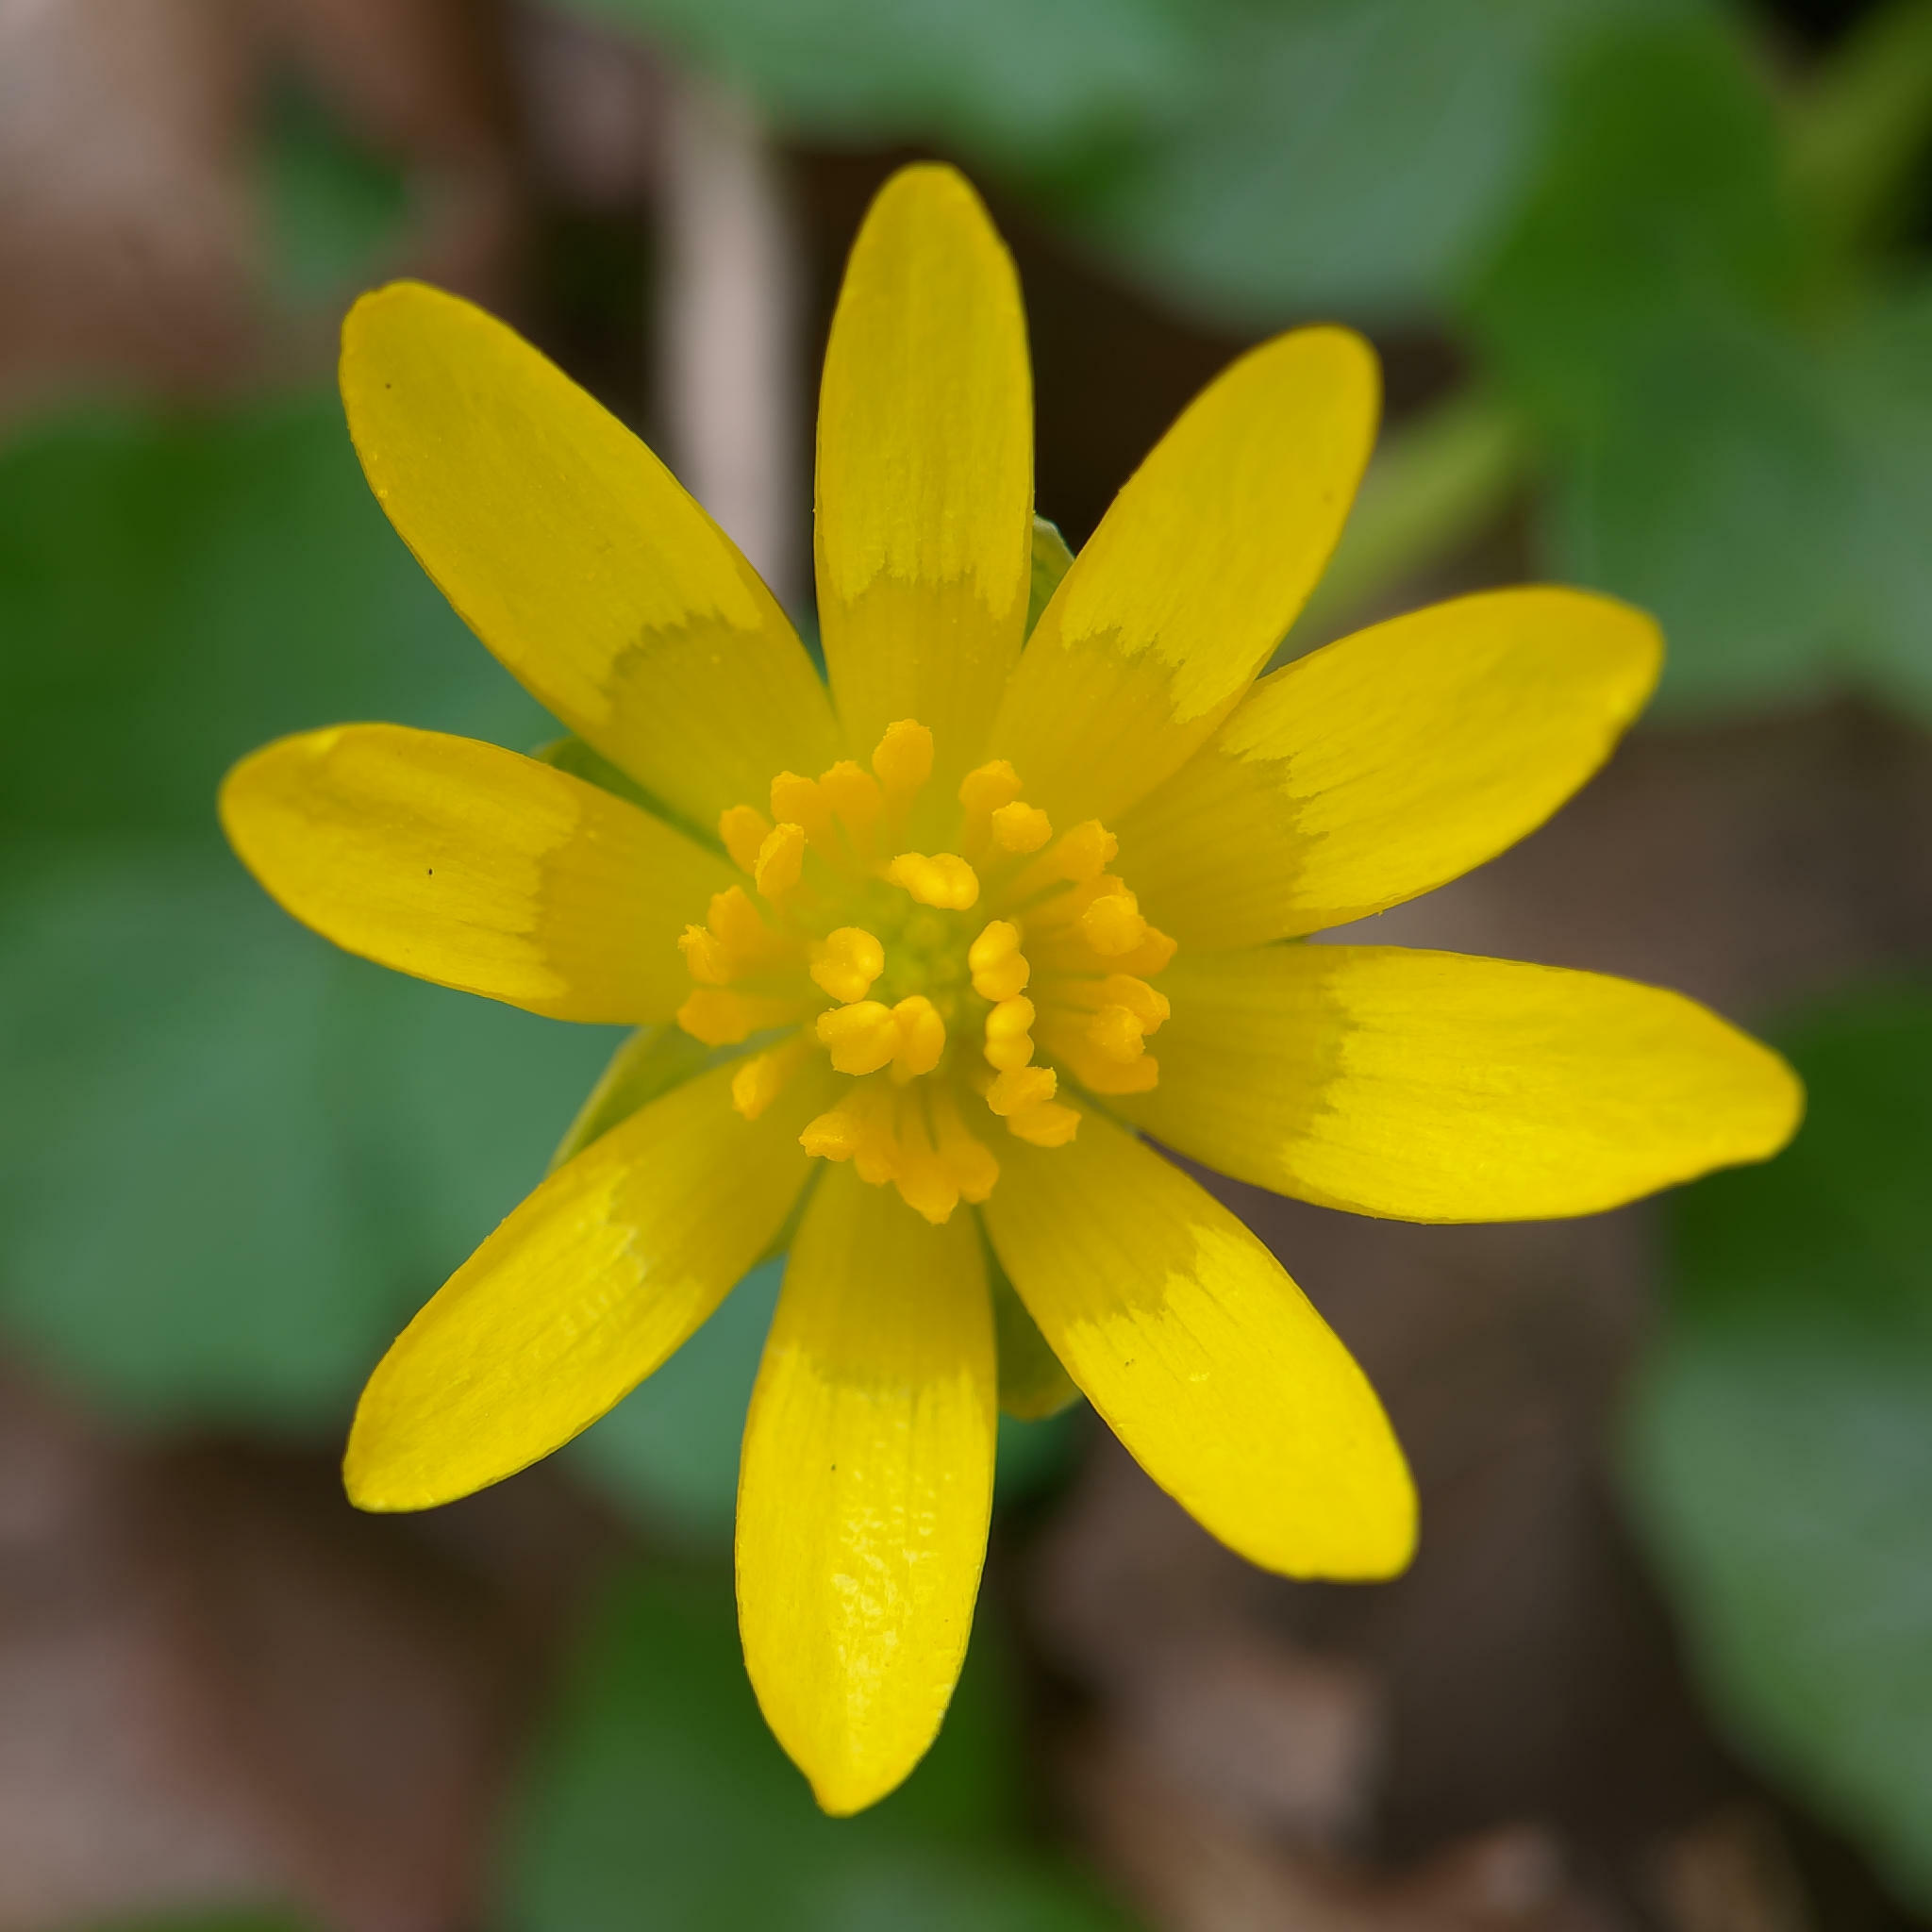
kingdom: Plantae
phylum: Tracheophyta
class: Magnoliopsida
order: Ranunculales
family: Ranunculaceae
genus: Ficaria
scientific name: Ficaria verna
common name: Lesser celandine
